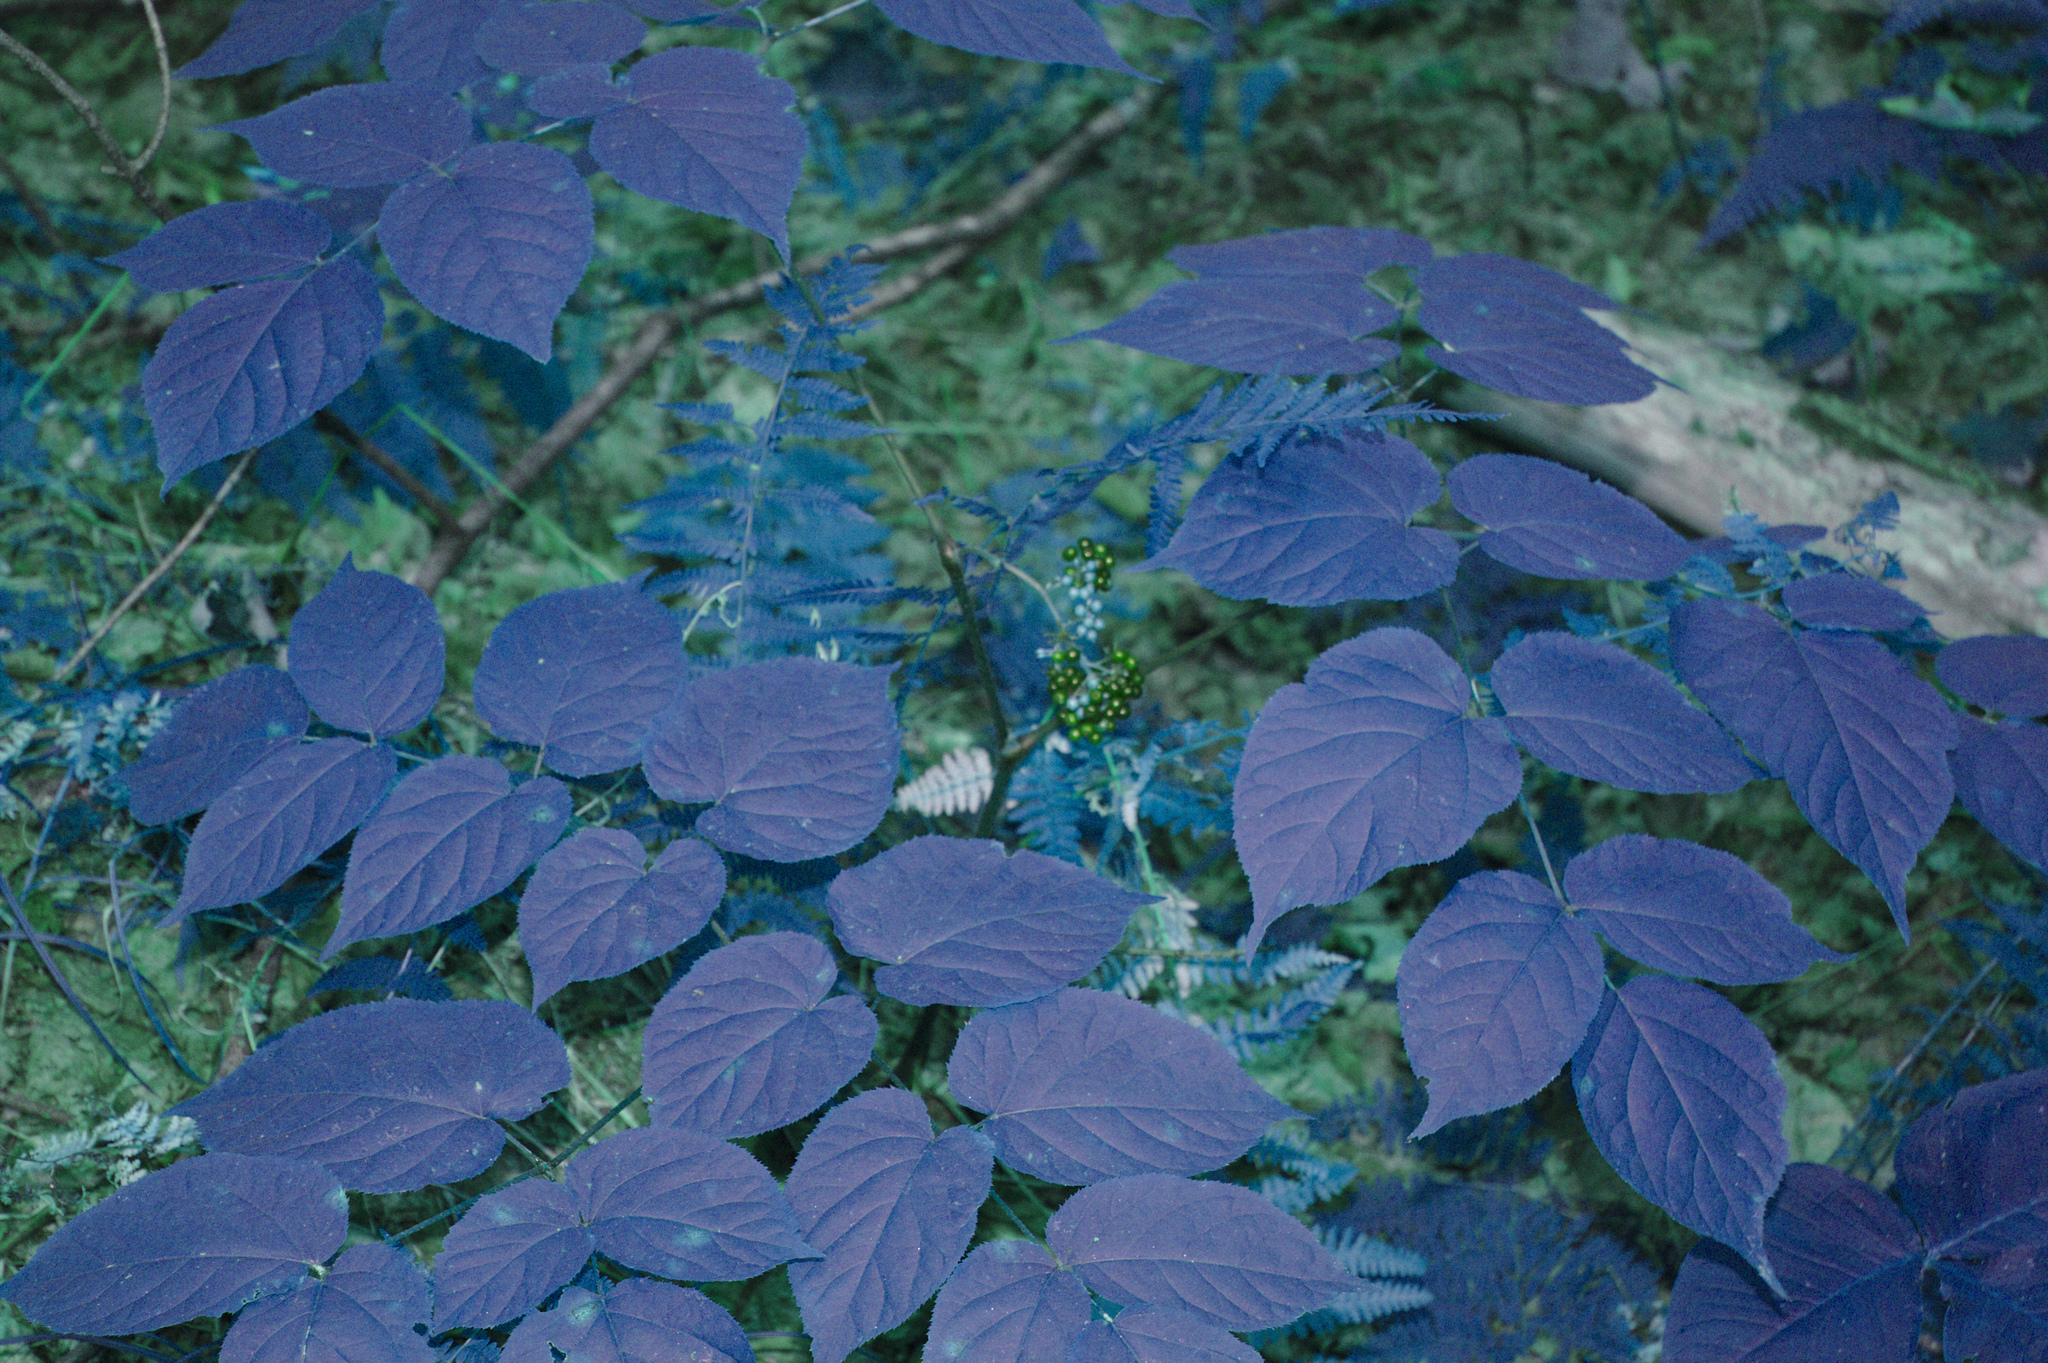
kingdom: Plantae
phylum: Tracheophyta
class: Magnoliopsida
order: Apiales
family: Araliaceae
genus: Aralia
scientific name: Aralia racemosa
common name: American-spikenard
